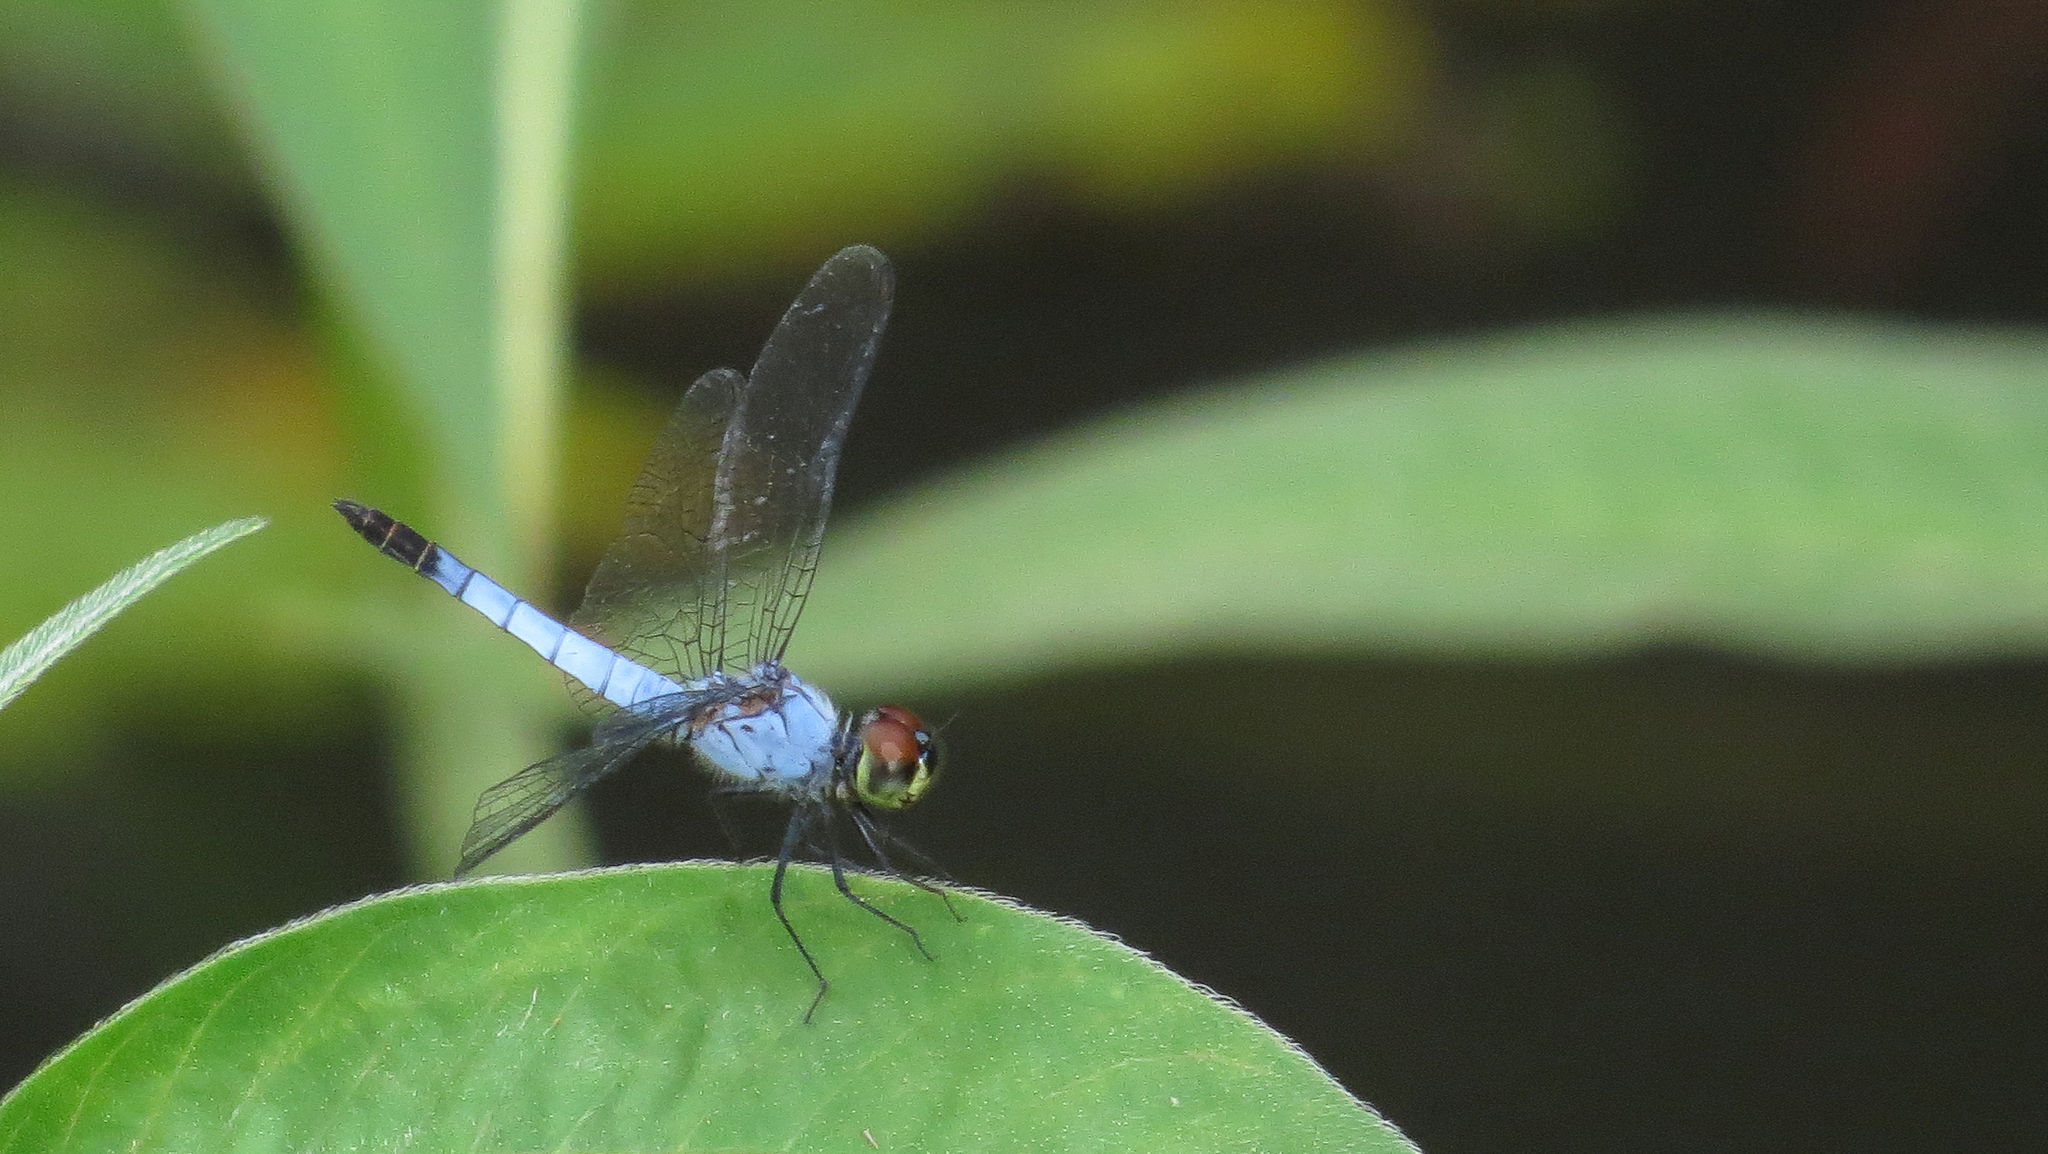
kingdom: Animalia
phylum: Arthropoda
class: Insecta
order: Odonata
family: Libellulidae
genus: Brachydiplax
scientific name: Brachydiplax denticauda
